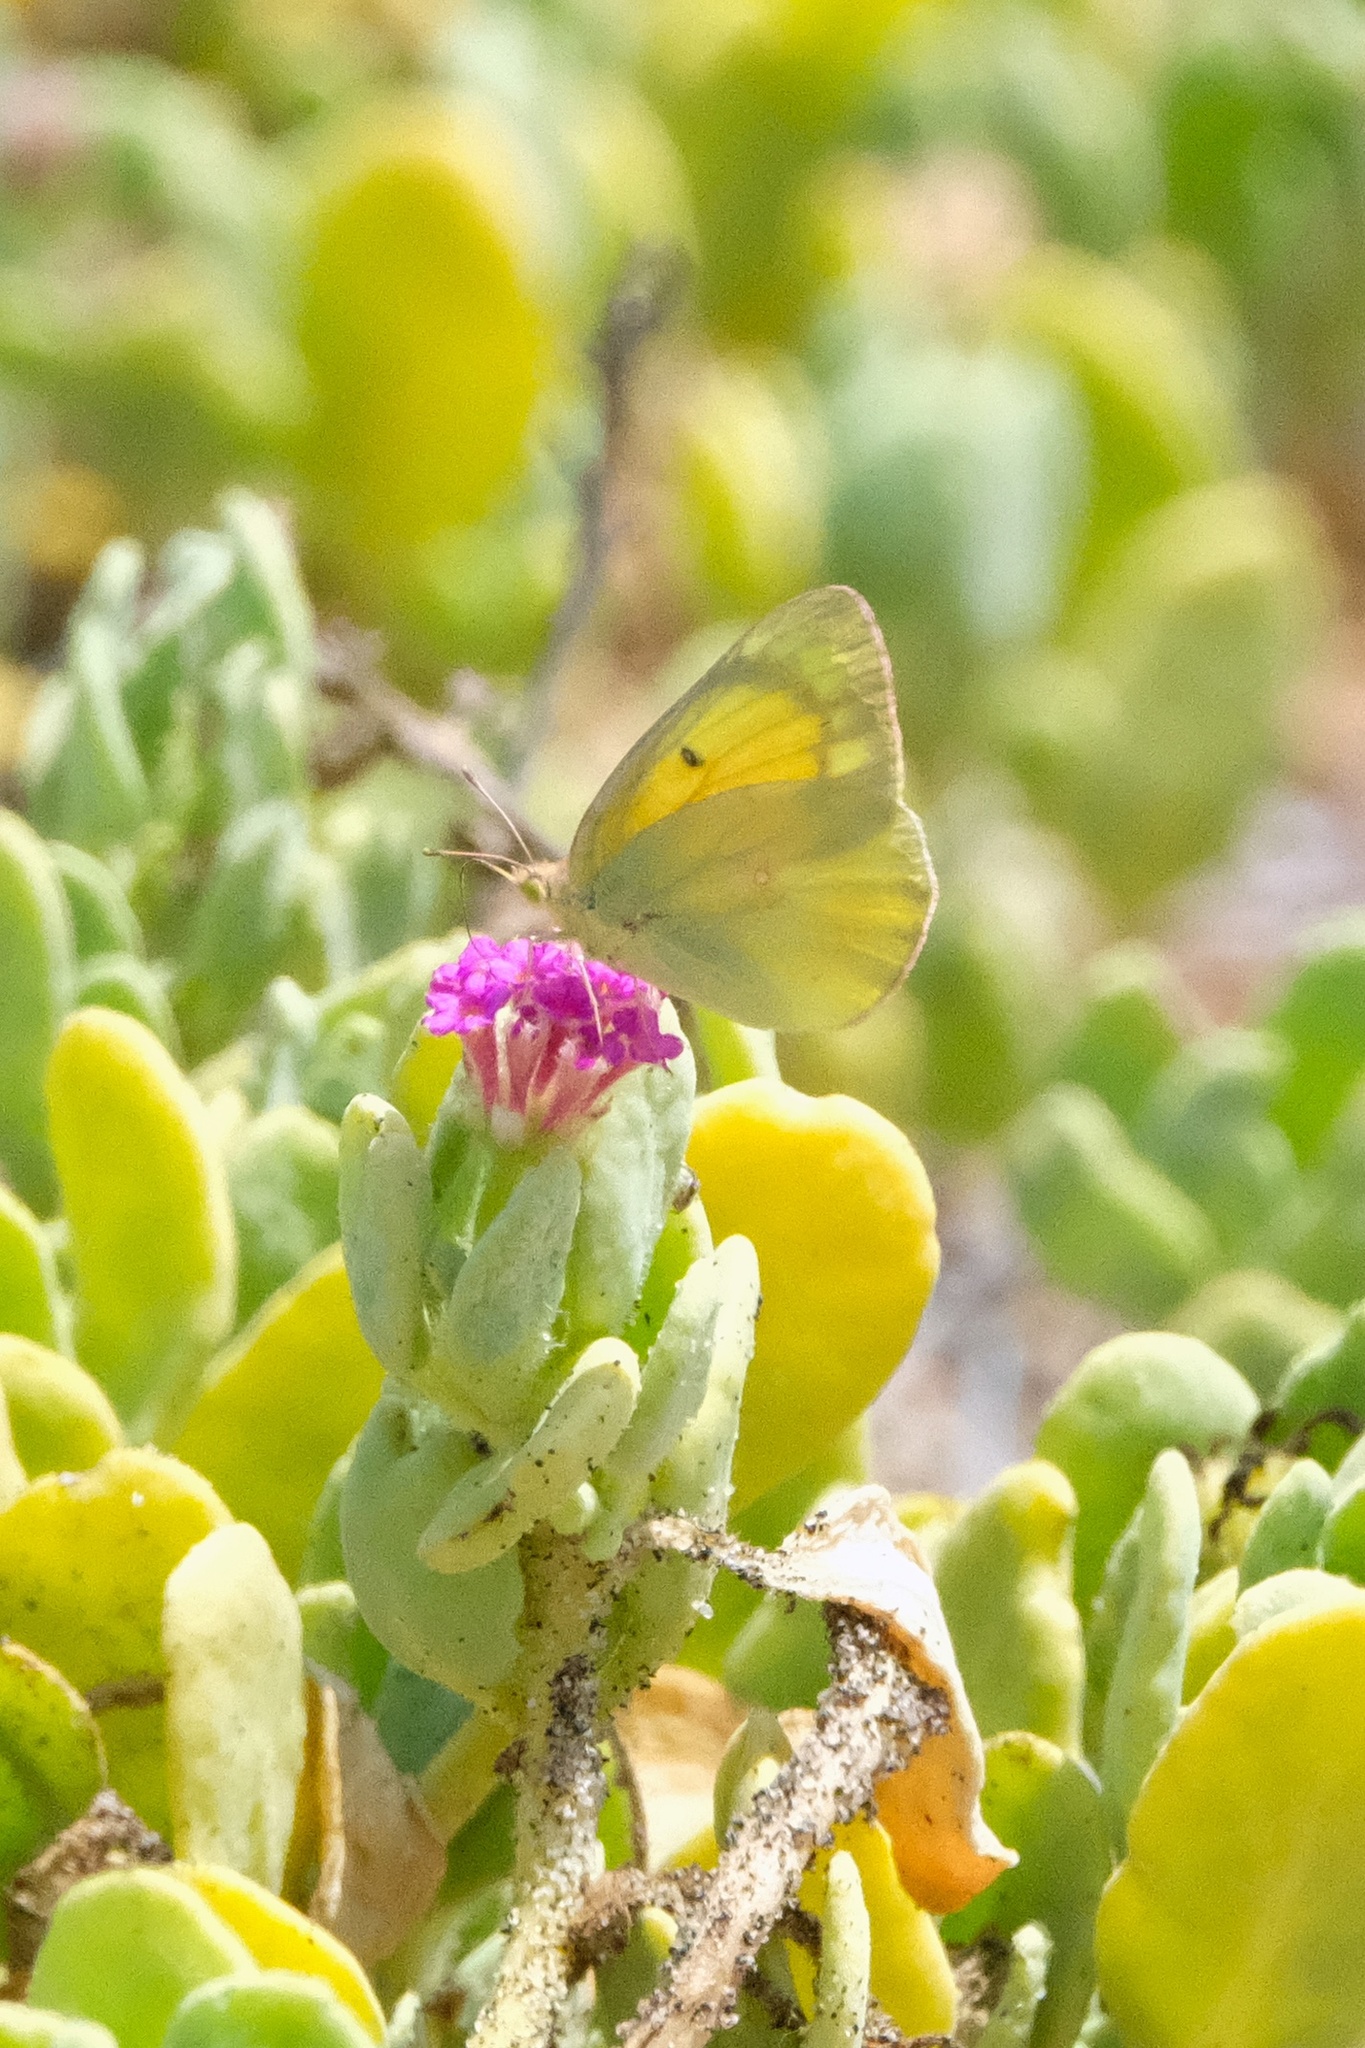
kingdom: Animalia
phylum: Arthropoda
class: Insecta
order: Lepidoptera
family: Pieridae
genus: Colias
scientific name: Colias eurytheme
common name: Alfalfa butterfly
